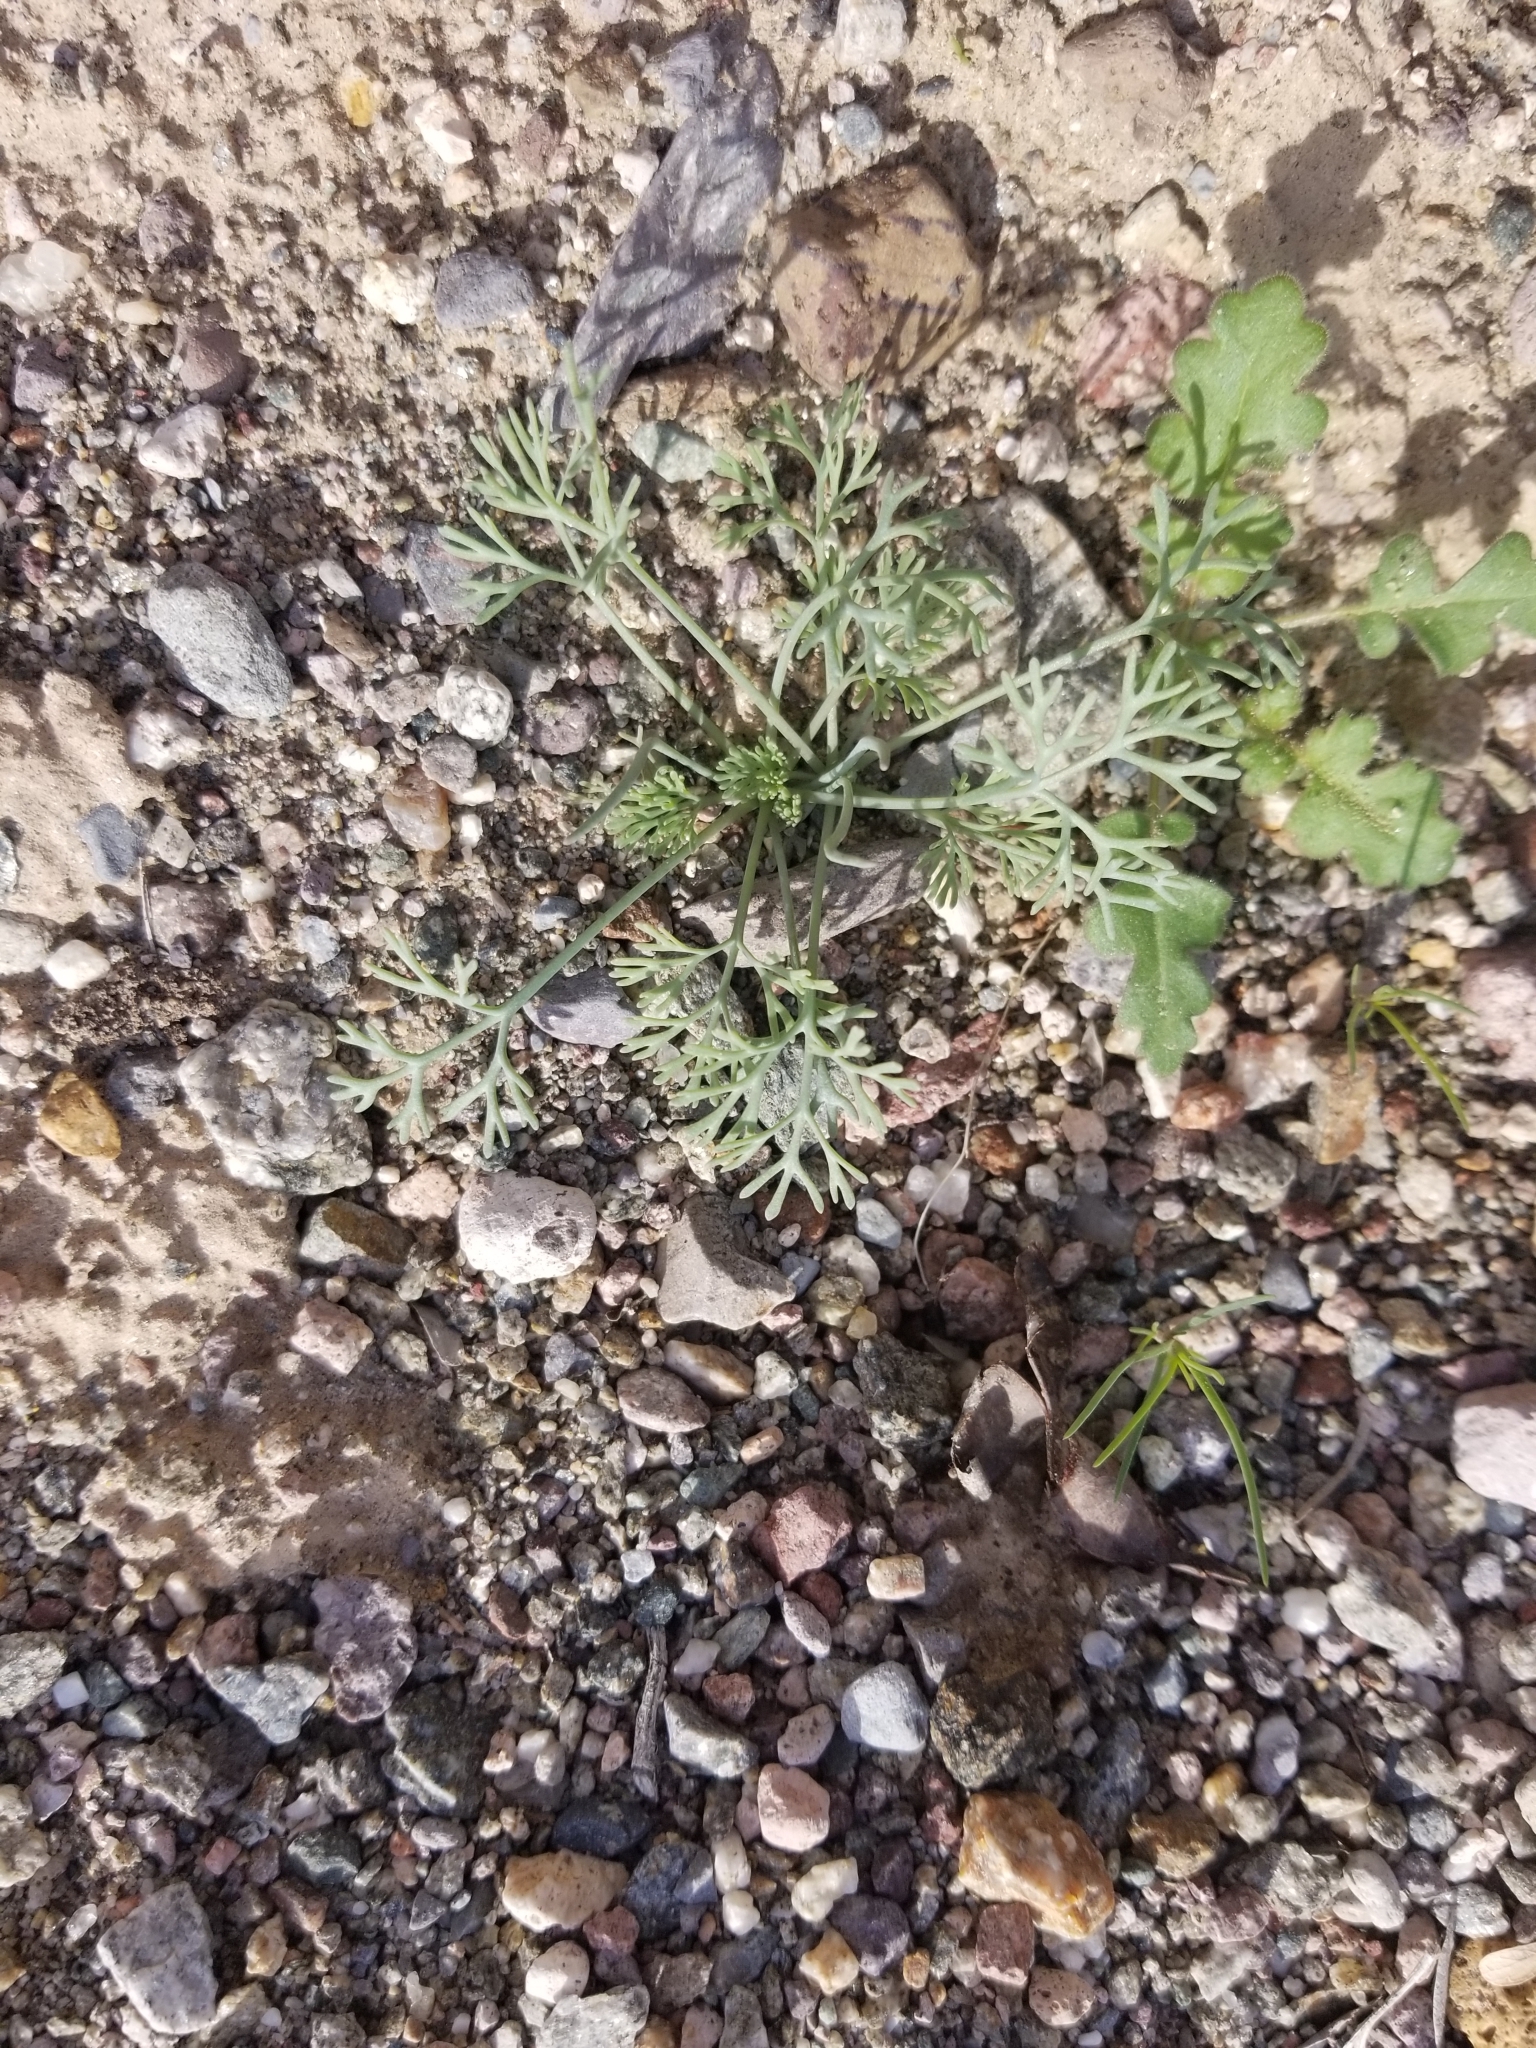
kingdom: Plantae
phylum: Tracheophyta
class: Magnoliopsida
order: Ranunculales
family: Papaveraceae
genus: Eschscholzia
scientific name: Eschscholzia minutiflora
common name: Small-flower california-poppy
